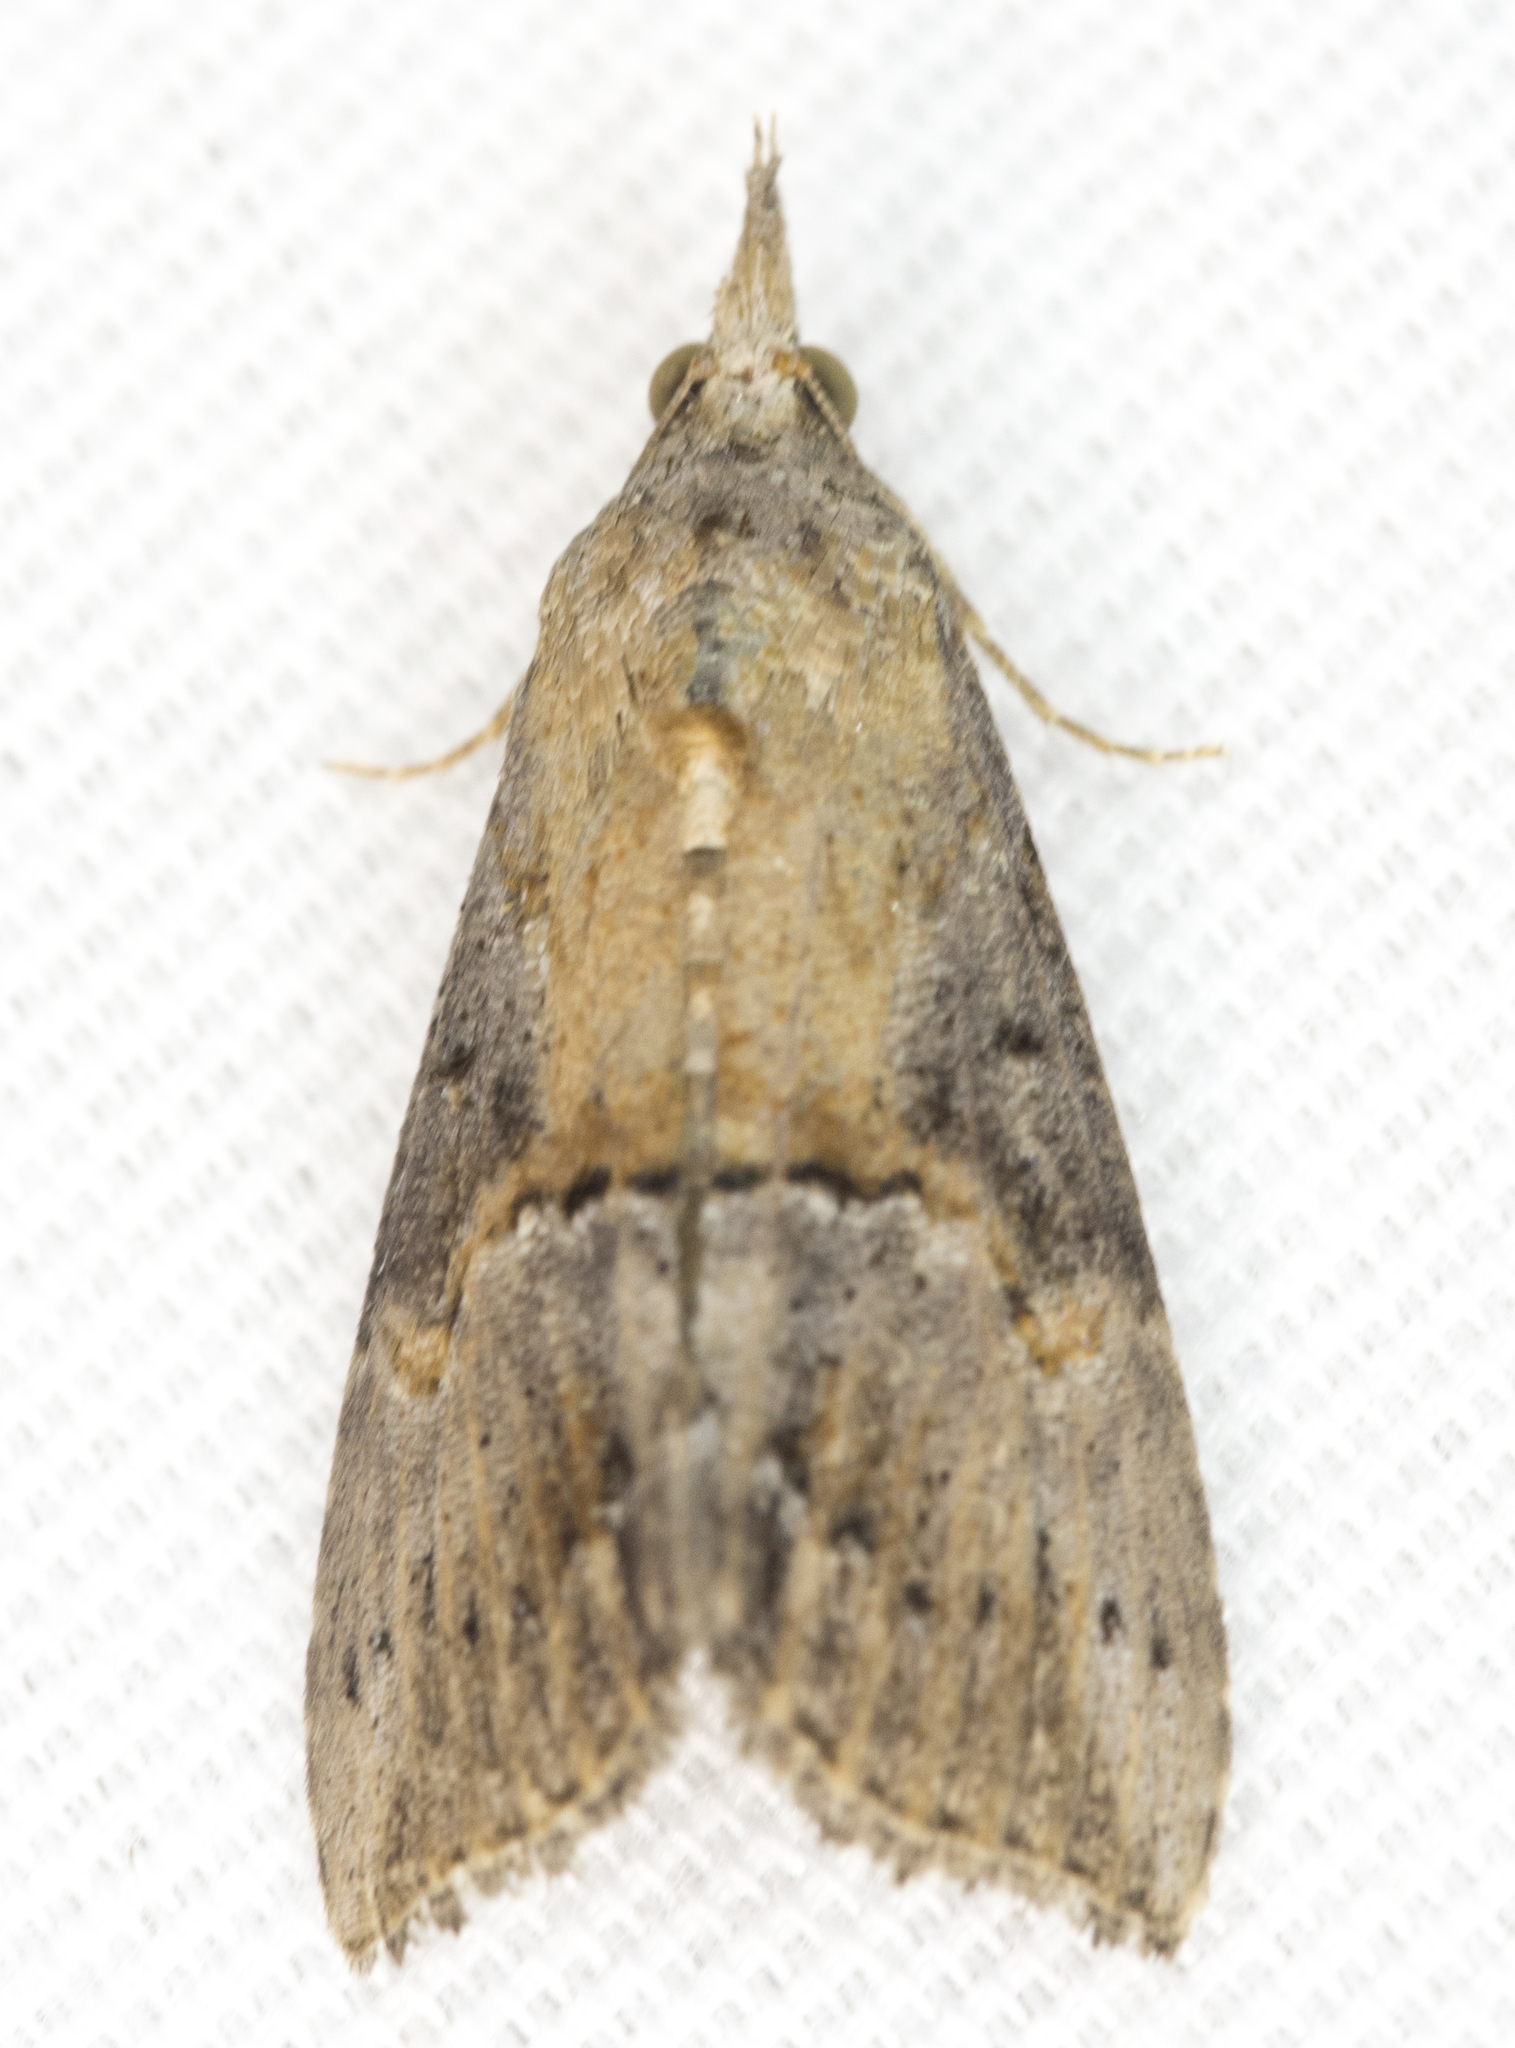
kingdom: Animalia
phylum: Arthropoda
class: Insecta
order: Lepidoptera
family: Erebidae
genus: Hypena
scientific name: Hypena scabra
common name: Green cloverworm
